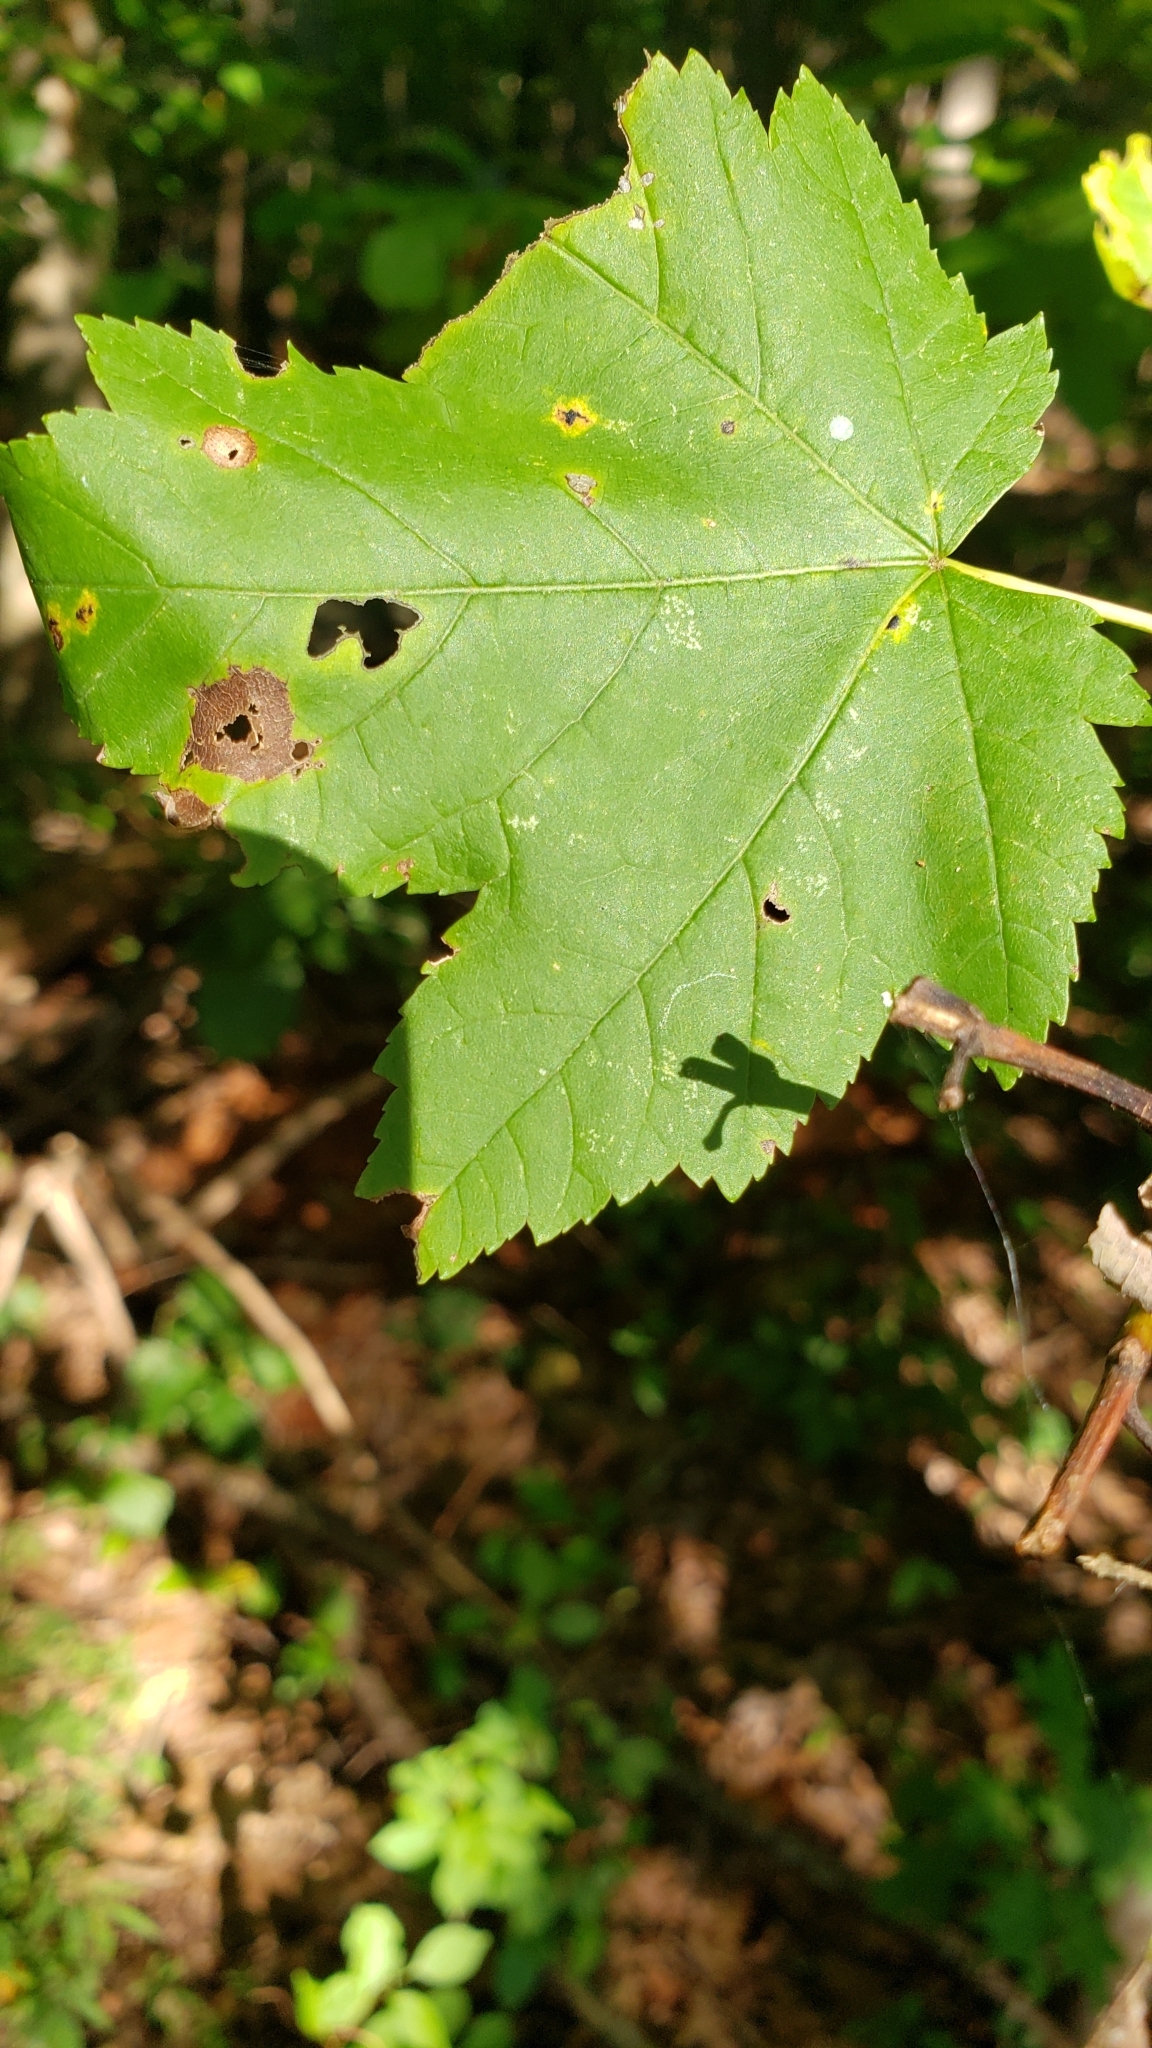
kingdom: Animalia
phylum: Arthropoda
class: Insecta
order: Lepidoptera
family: Noctuidae
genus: Acronicta
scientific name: Acronicta americana
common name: American dagger
